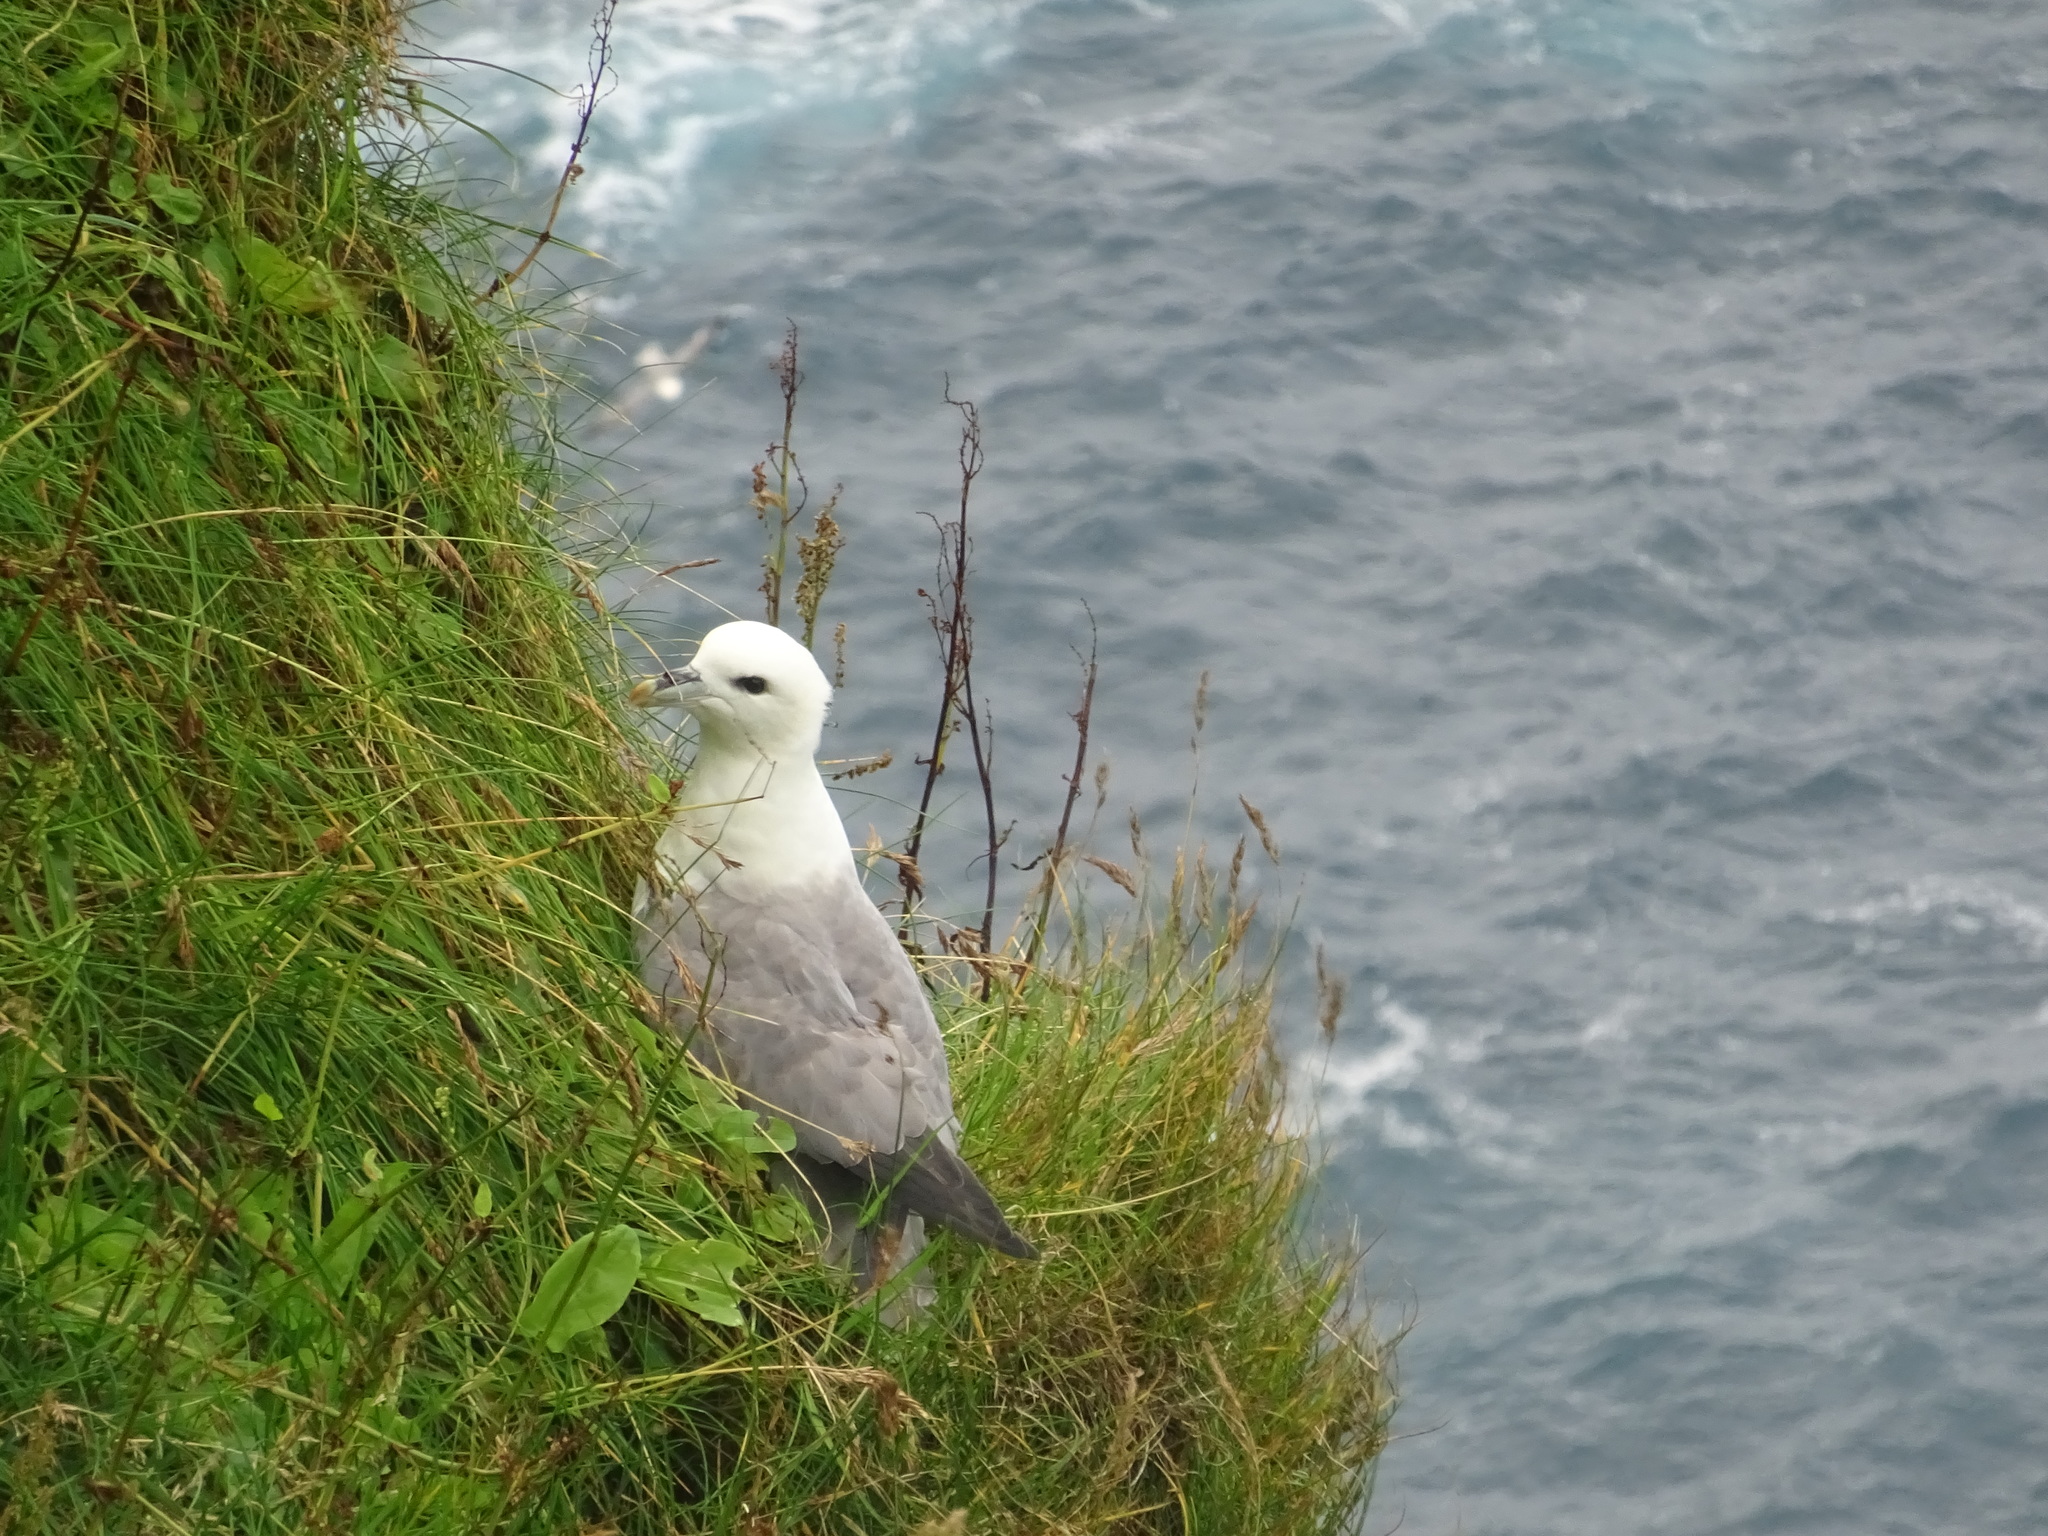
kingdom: Animalia
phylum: Chordata
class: Aves
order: Procellariiformes
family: Procellariidae
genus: Fulmarus
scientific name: Fulmarus glacialis
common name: Northern fulmar
